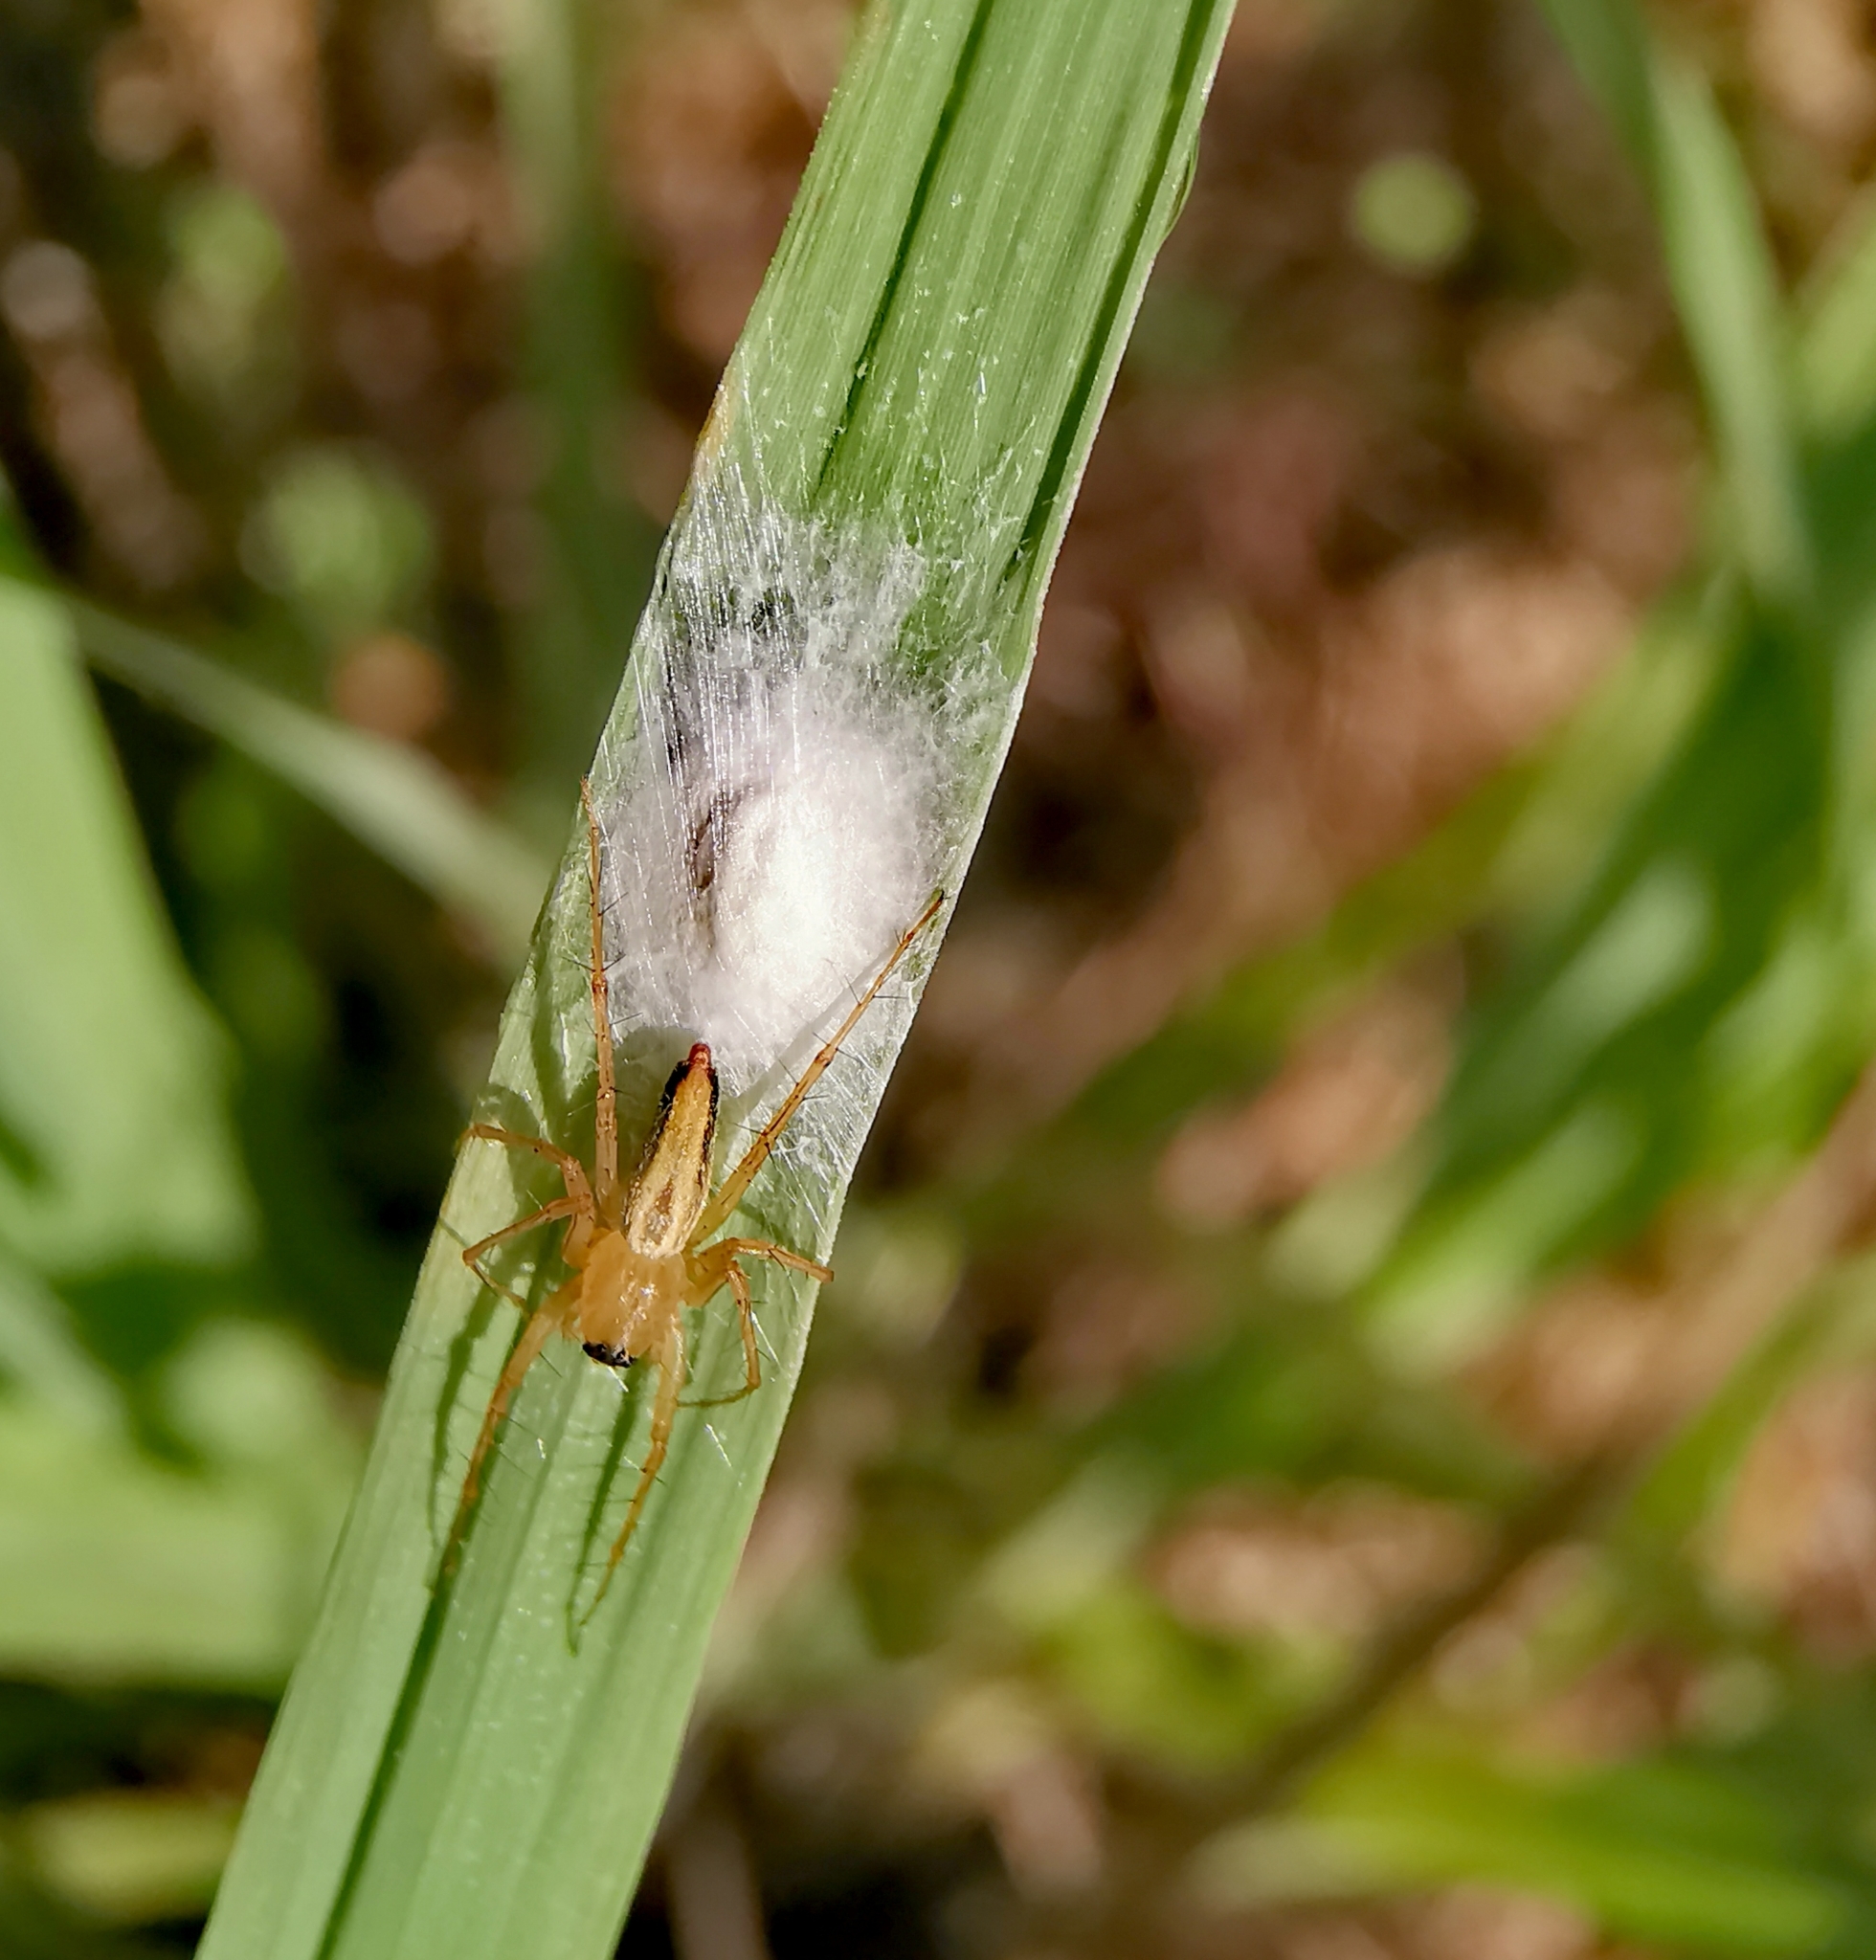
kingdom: Animalia
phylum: Arthropoda
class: Arachnida
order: Araneae
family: Oxyopidae
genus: Oxyopes
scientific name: Oxyopes
